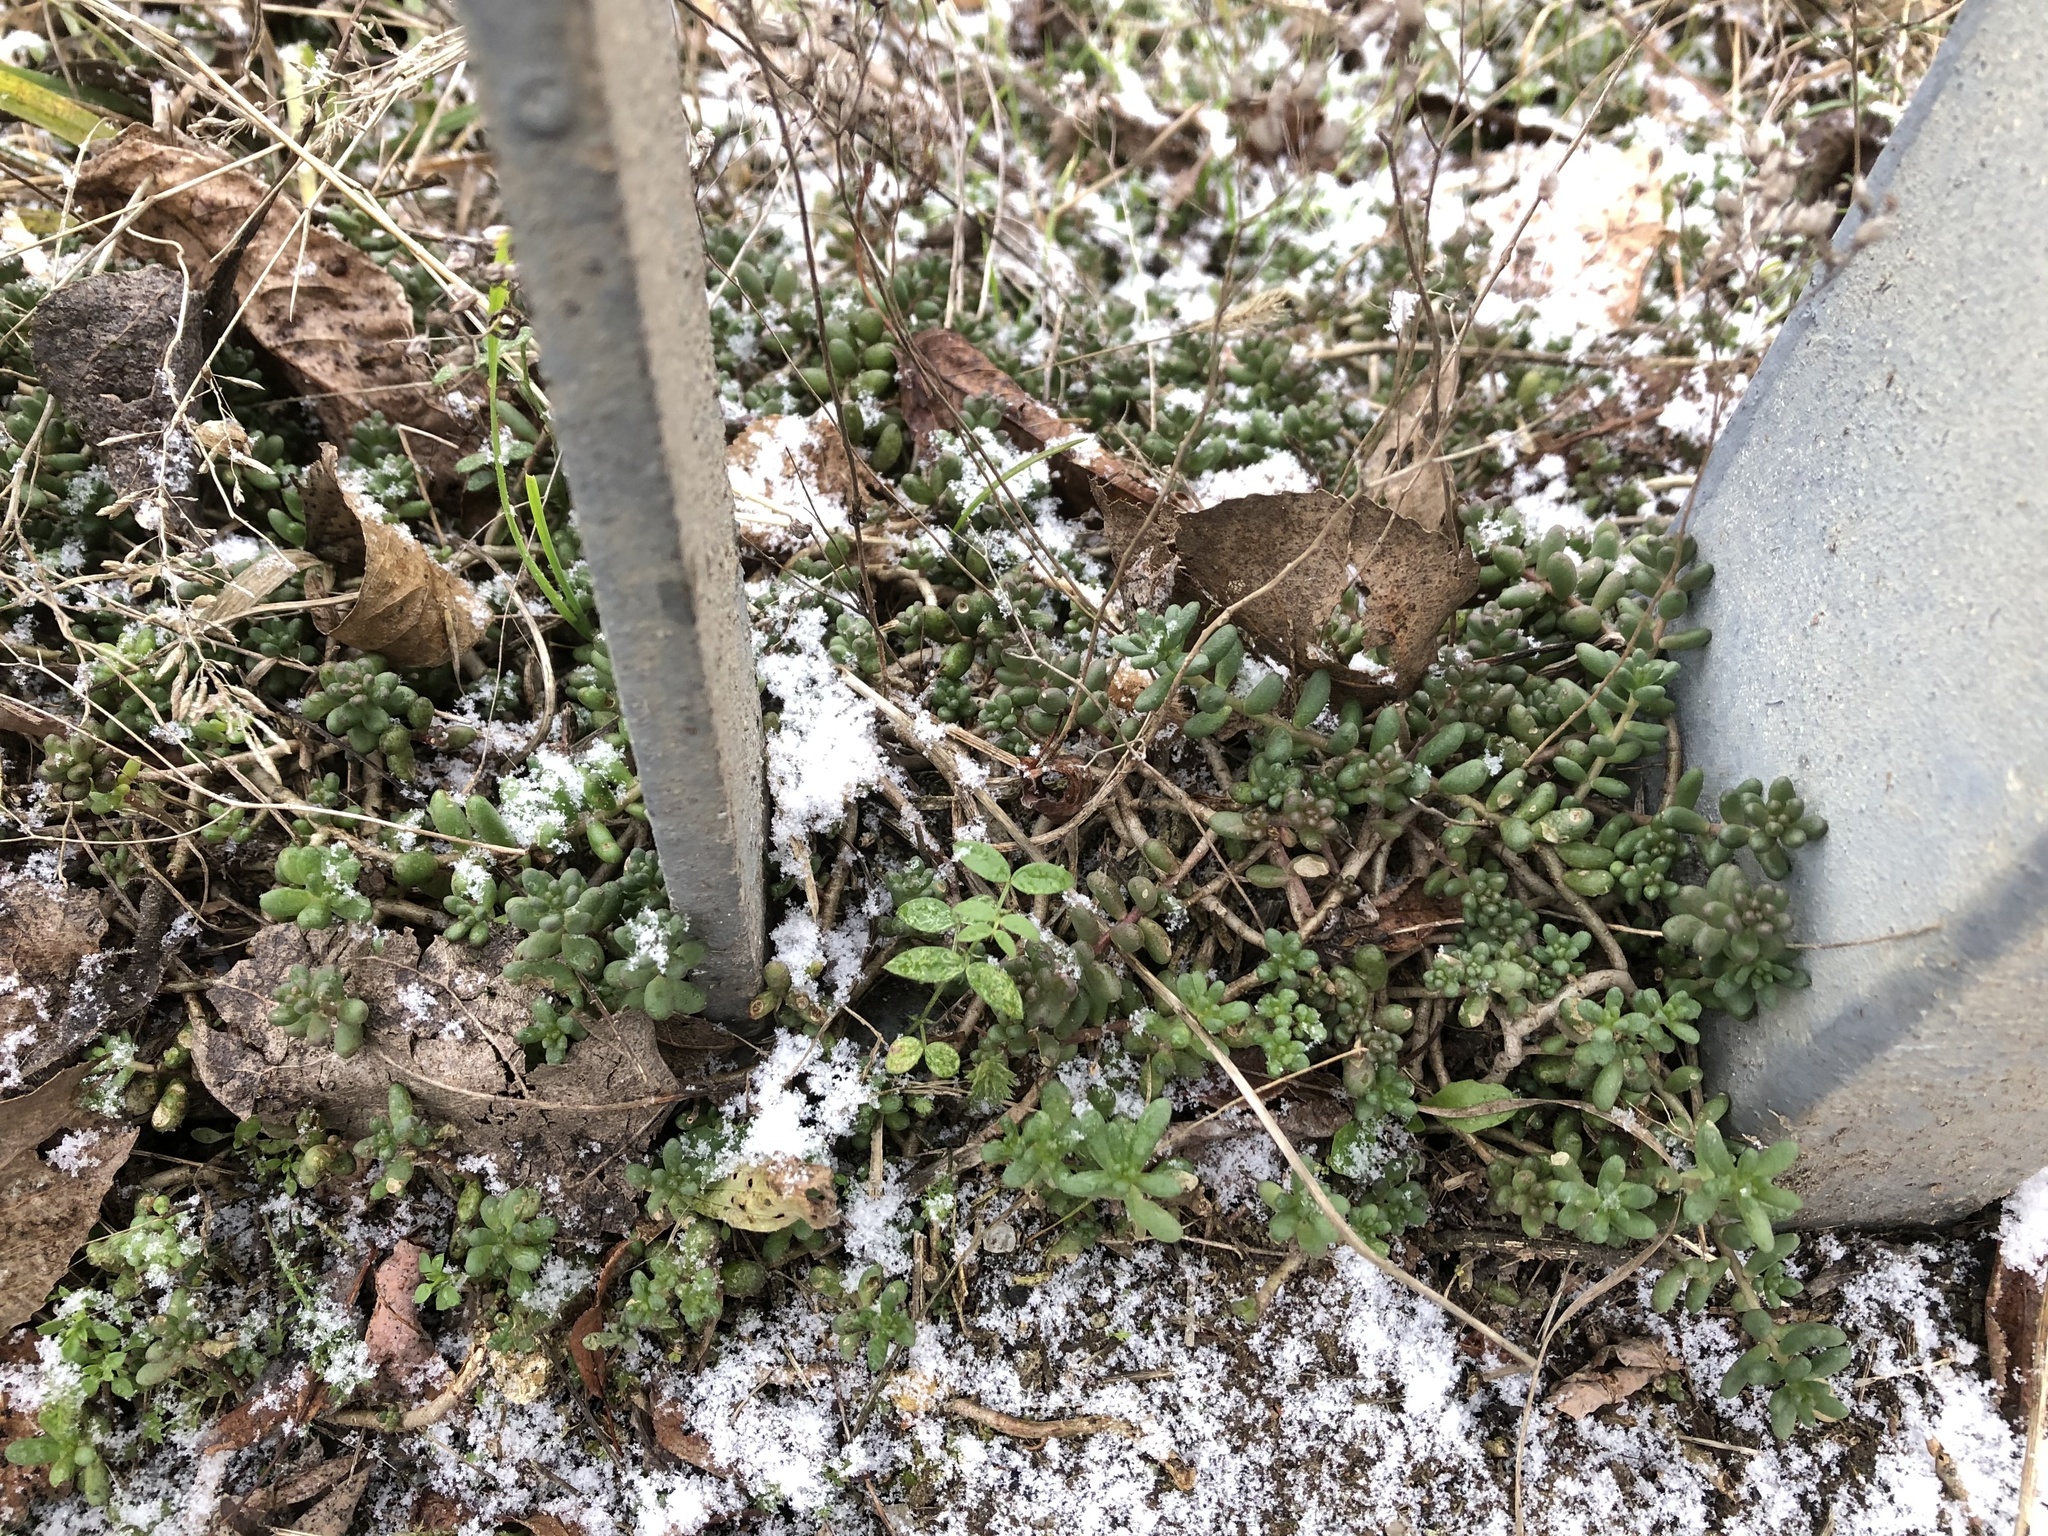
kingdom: Plantae
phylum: Tracheophyta
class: Magnoliopsida
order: Saxifragales
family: Crassulaceae
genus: Sedum
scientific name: Sedum album
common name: White stonecrop
